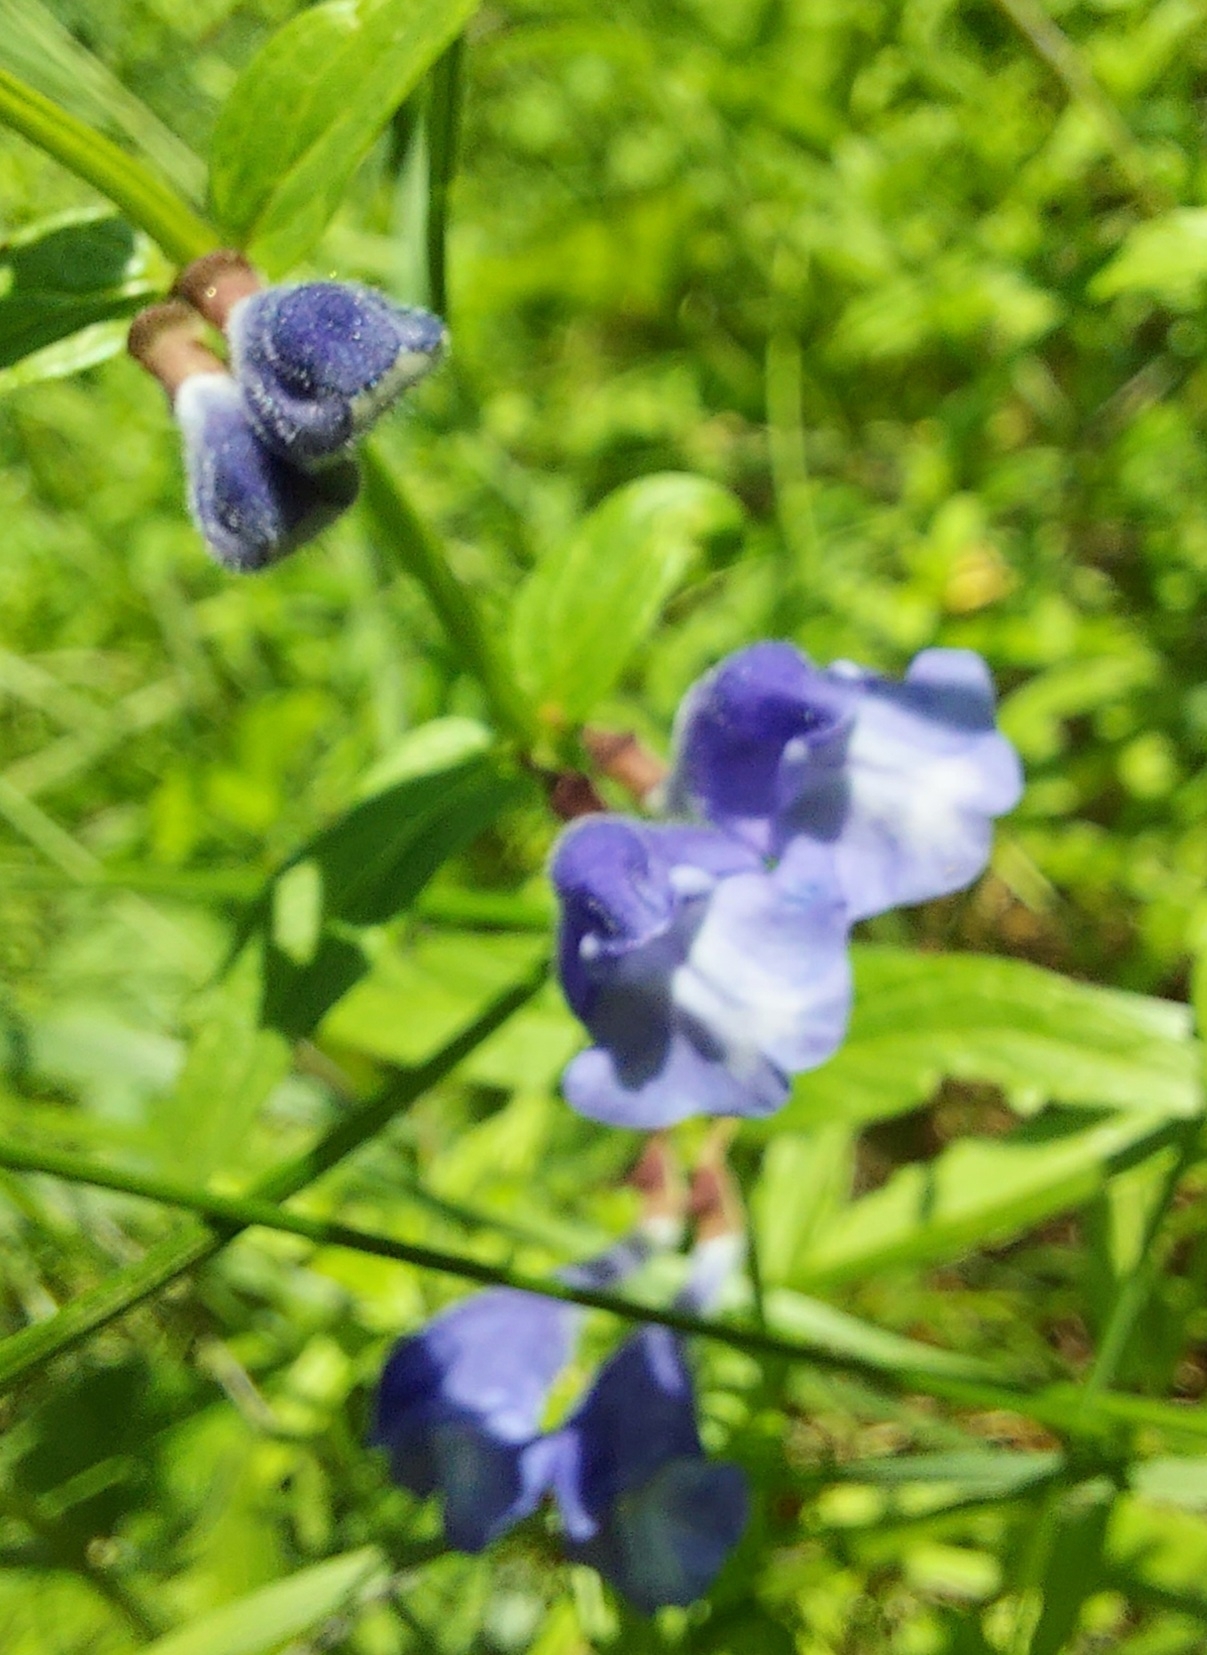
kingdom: Plantae
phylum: Tracheophyta
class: Magnoliopsida
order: Lamiales
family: Lamiaceae
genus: Scutellaria
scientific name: Scutellaria galericulata
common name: Skullcap
